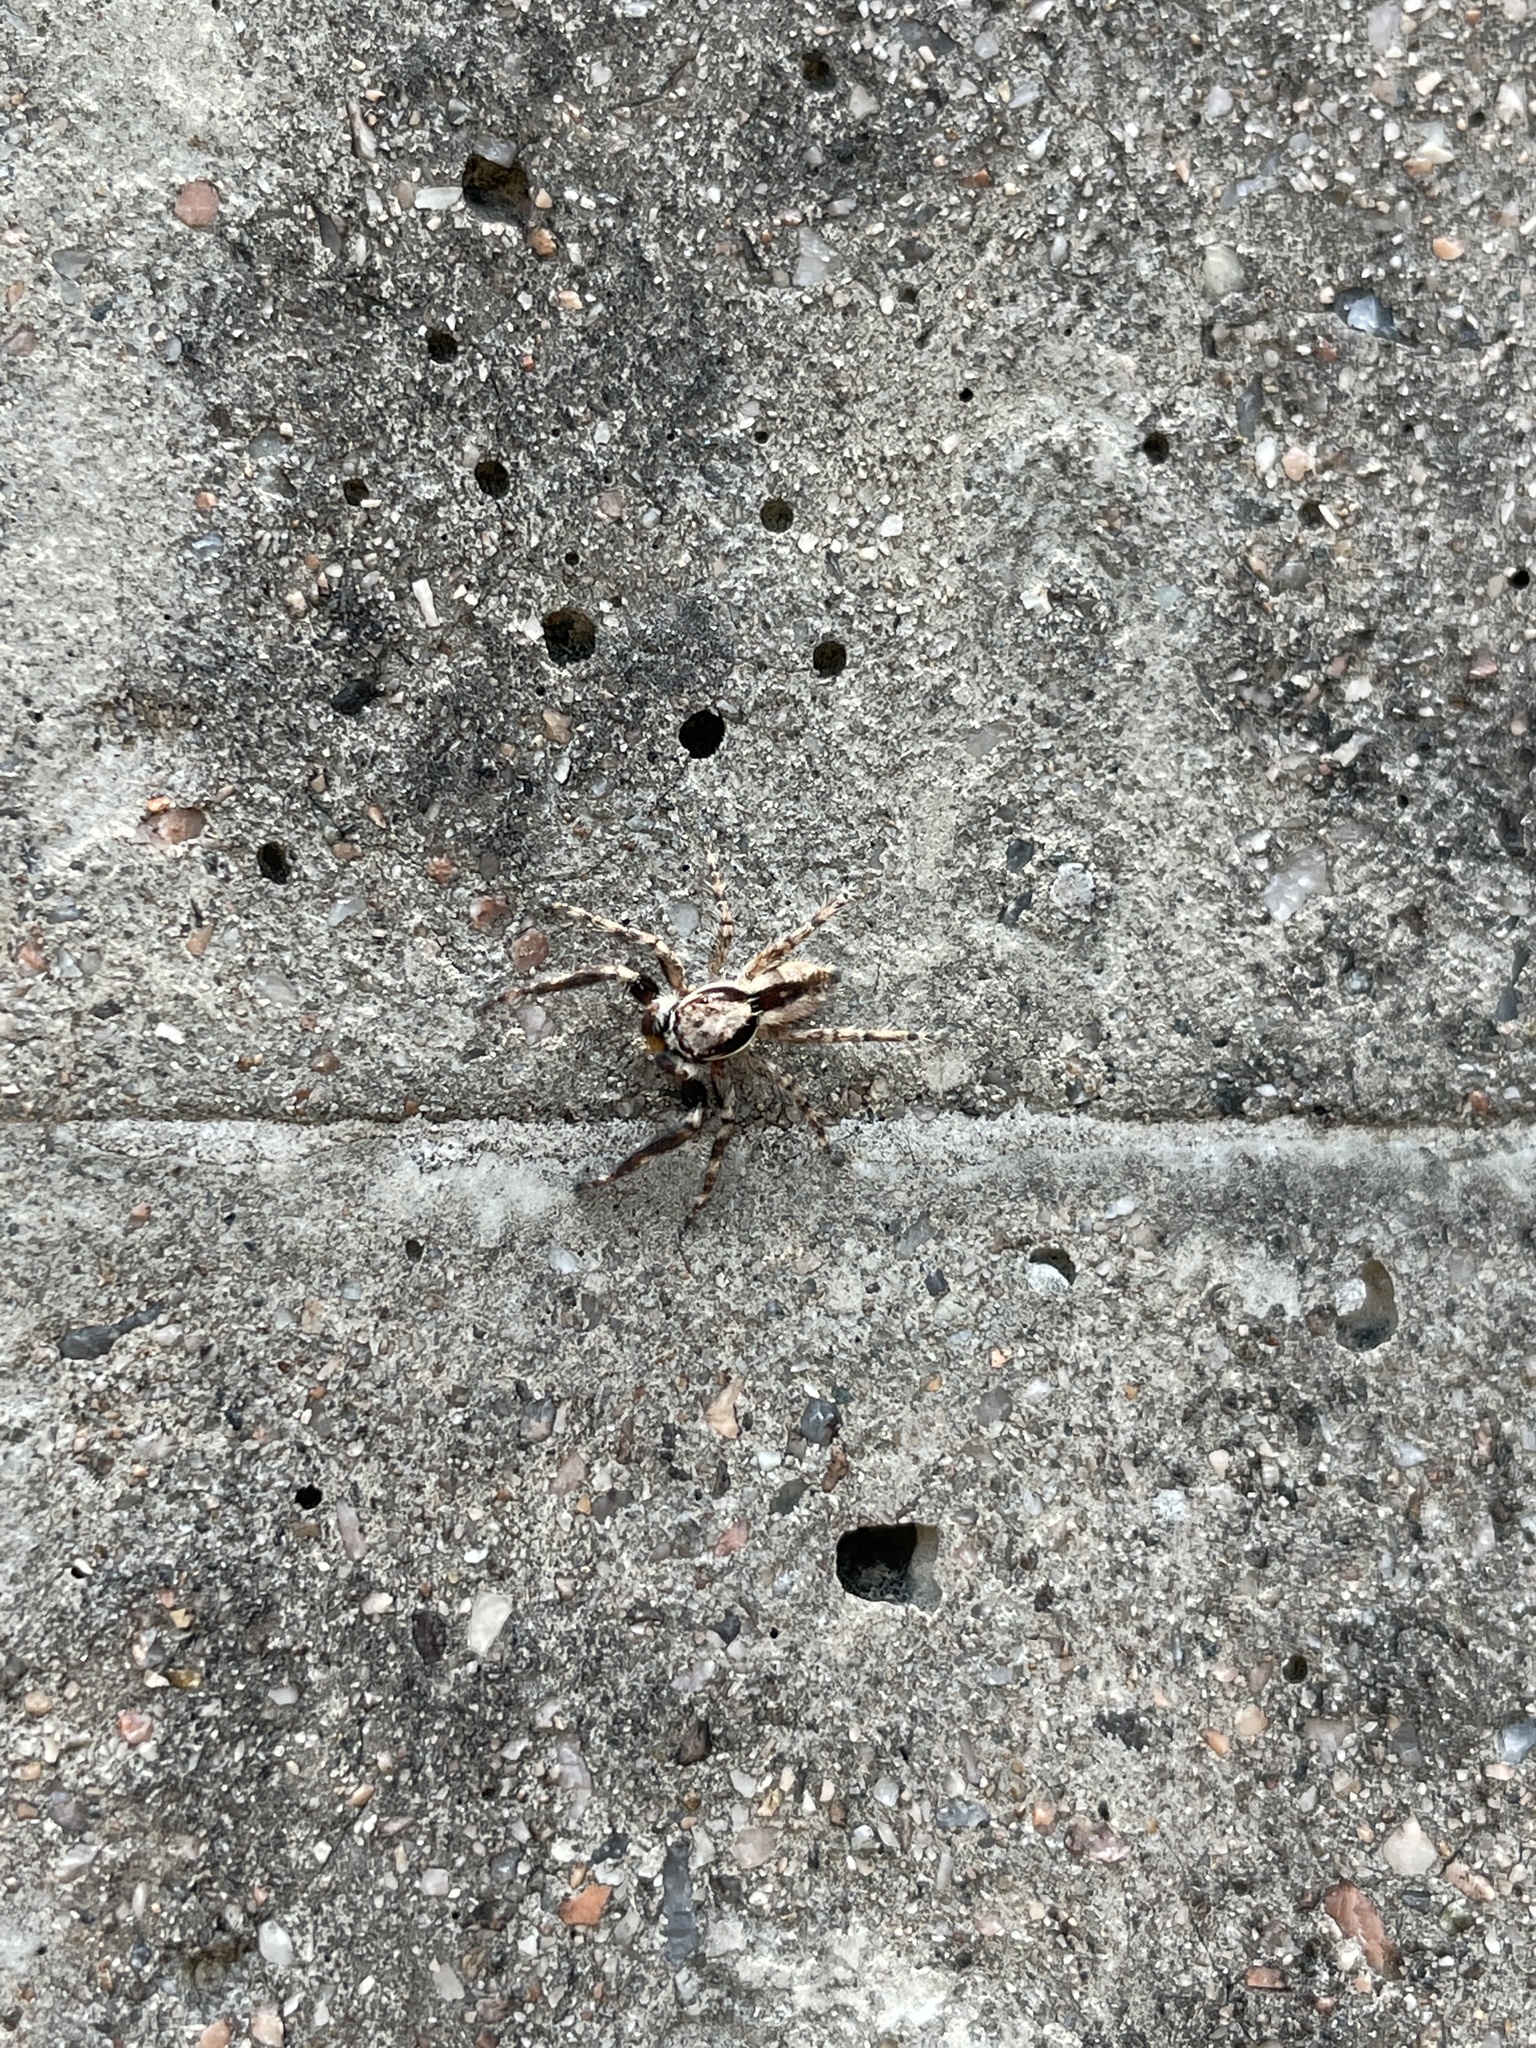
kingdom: Animalia
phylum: Arthropoda
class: Arachnida
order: Araneae
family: Salticidae
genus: Menemerus
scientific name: Menemerus bivittatus
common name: Gray wall jumper
